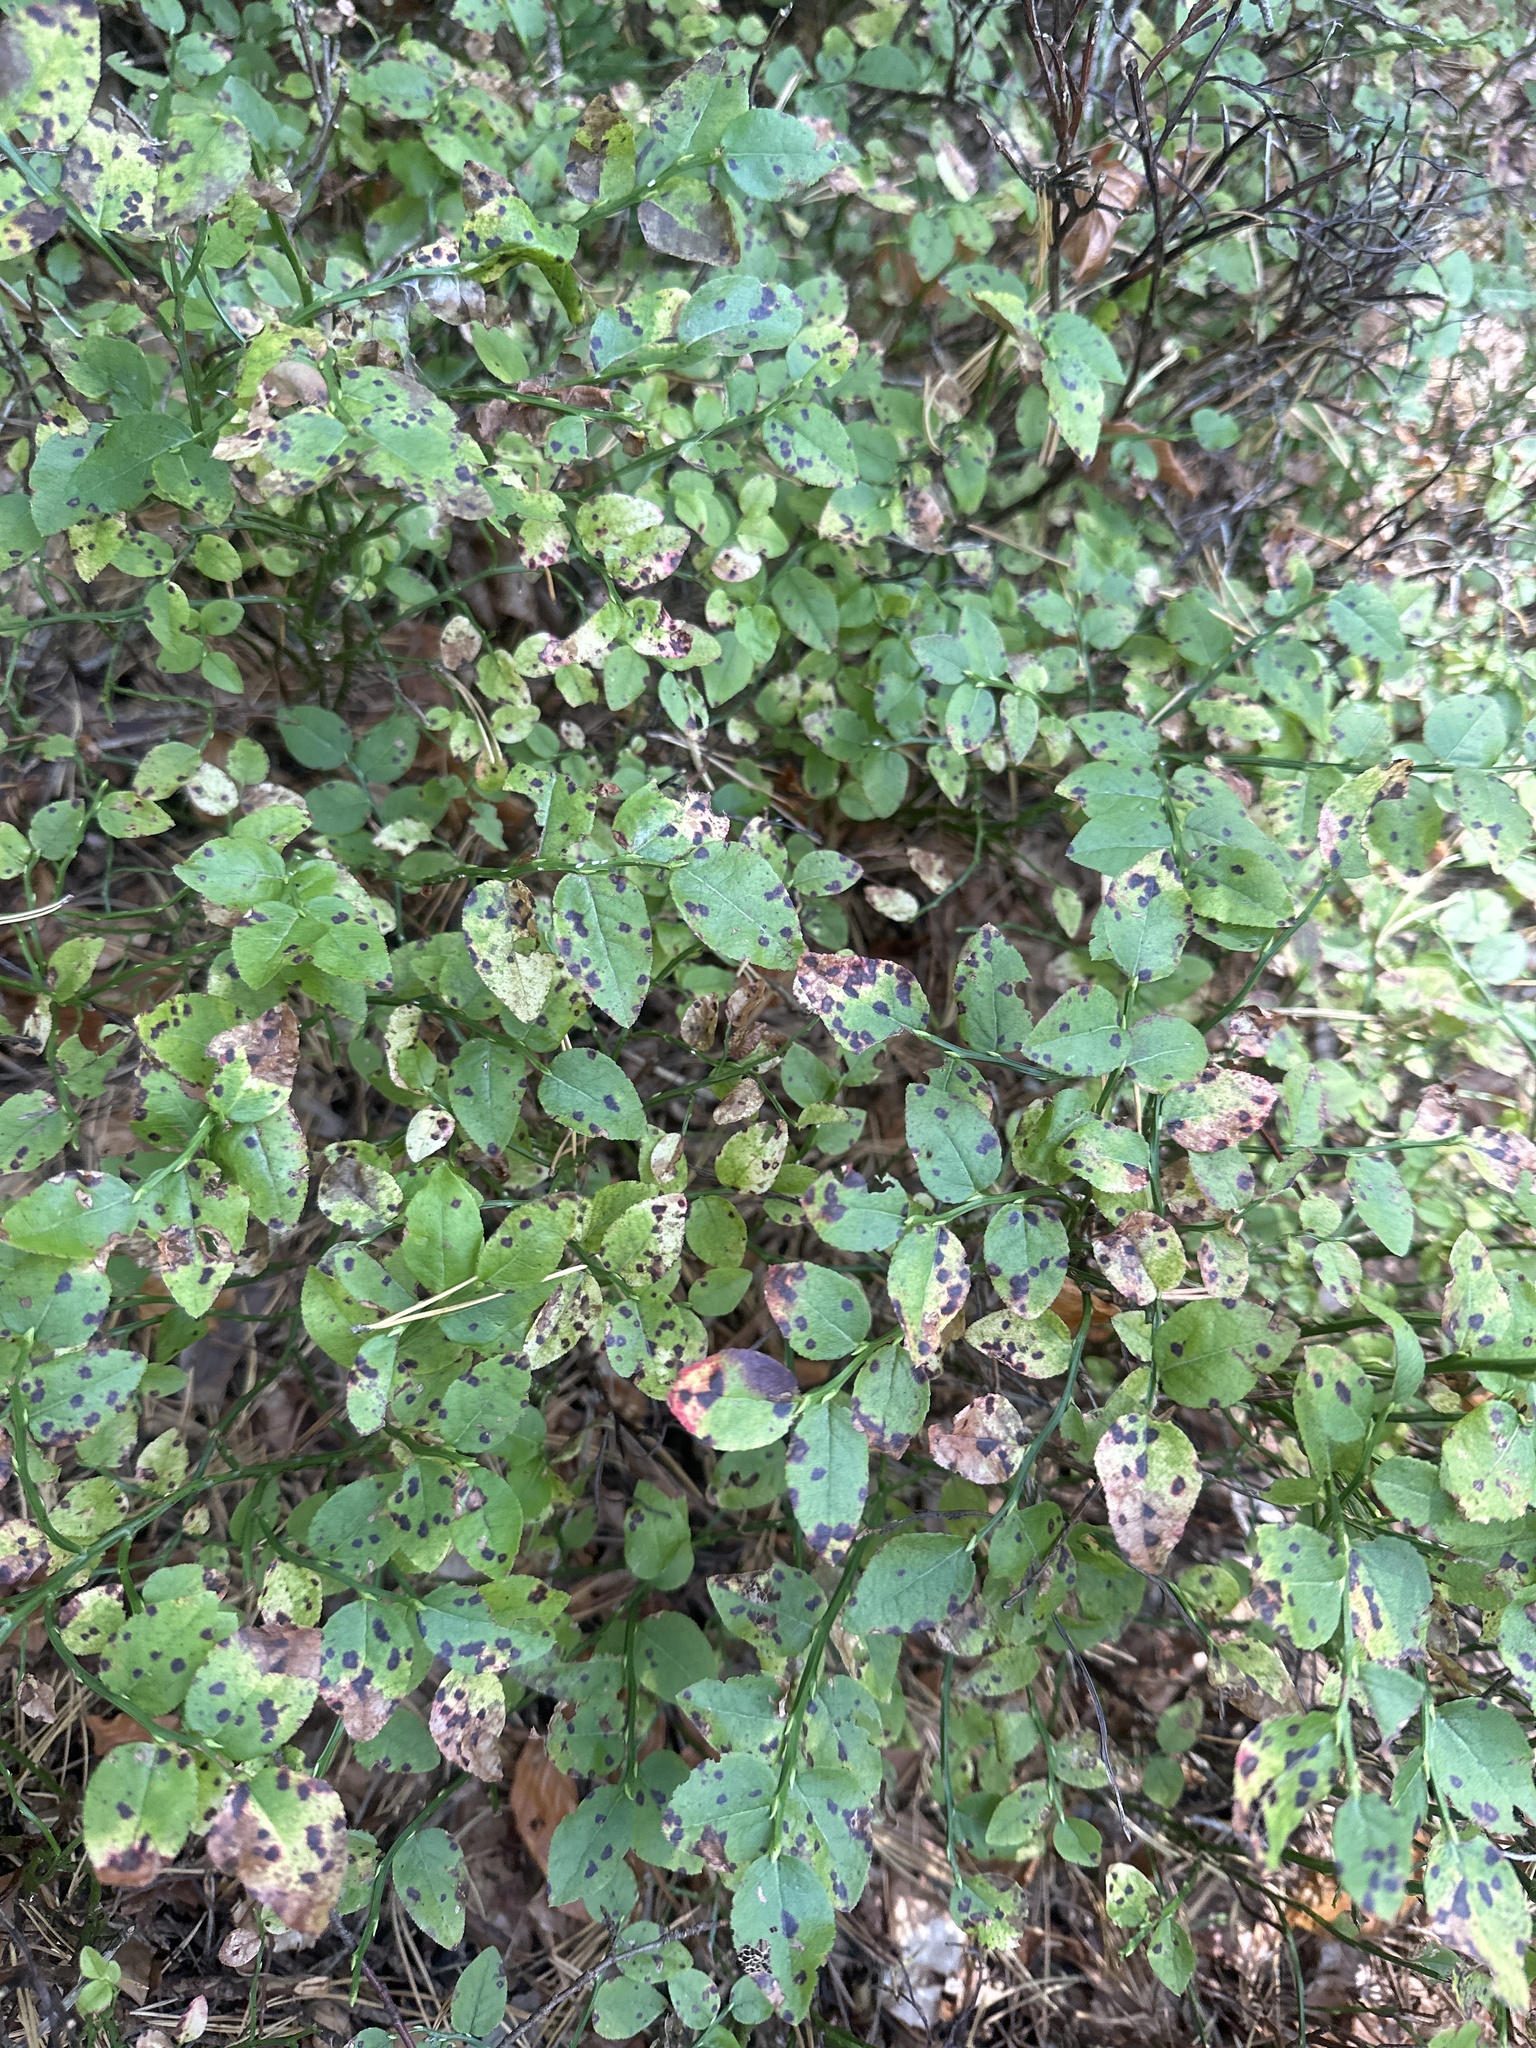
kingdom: Plantae
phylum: Tracheophyta
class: Magnoliopsida
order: Ericales
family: Ericaceae
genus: Vaccinium
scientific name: Vaccinium myrtillus
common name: Bilberry
